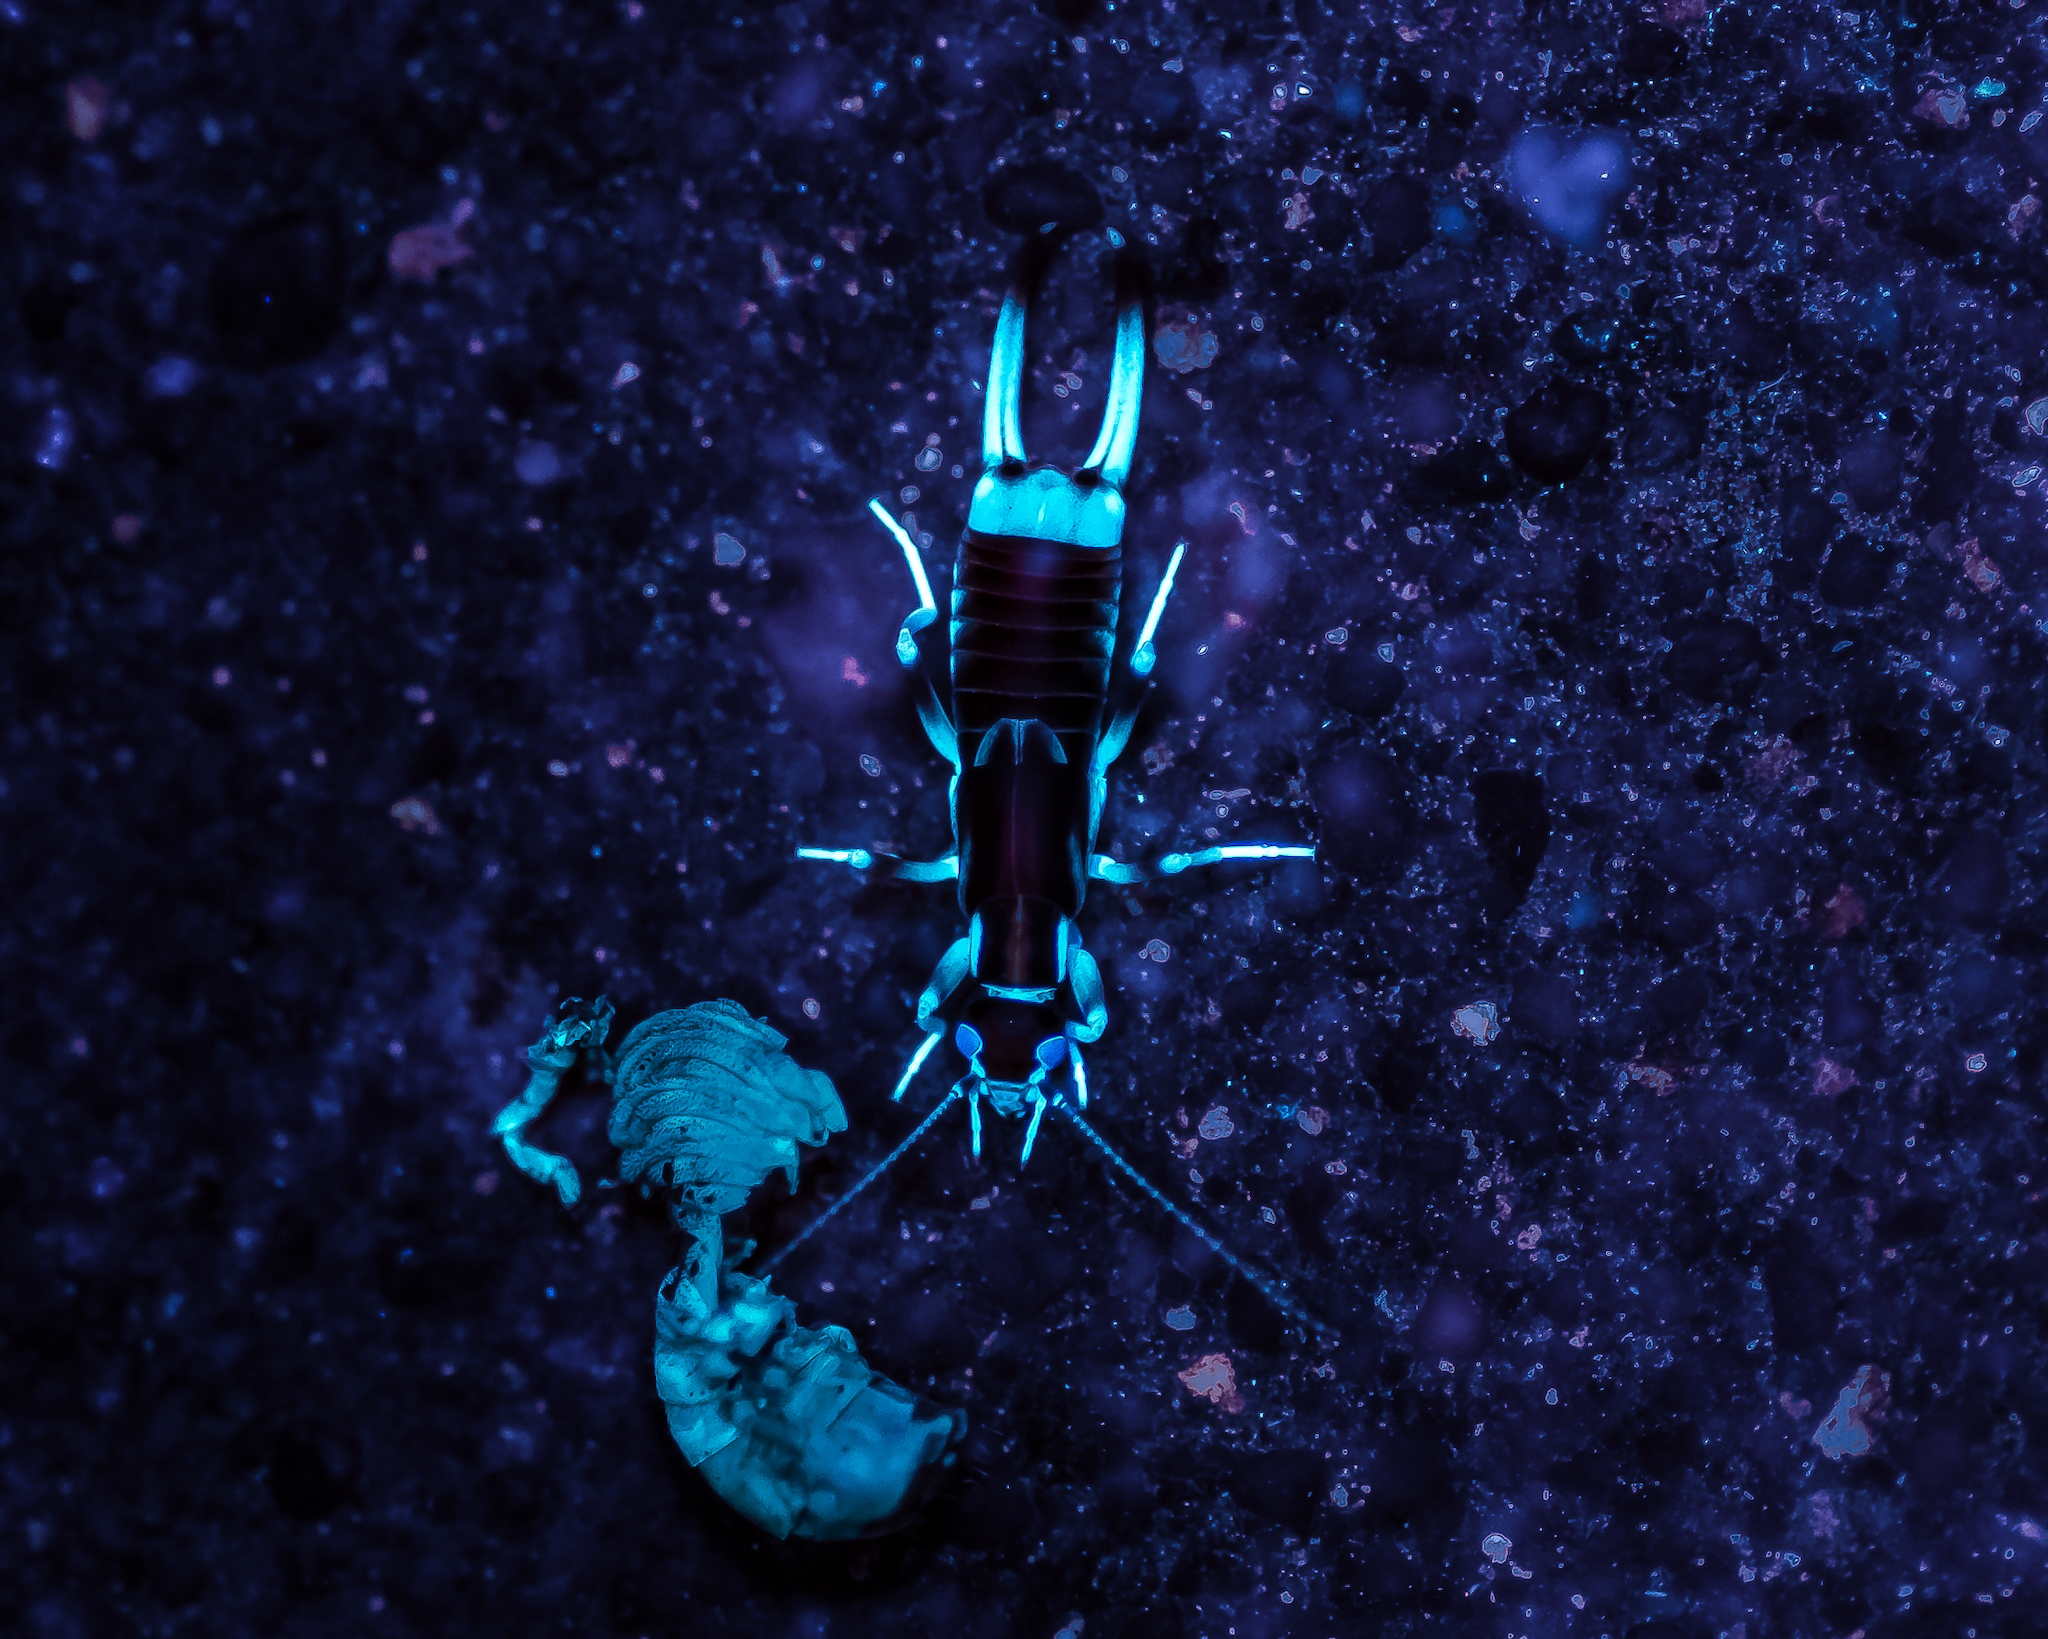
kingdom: Animalia
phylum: Arthropoda
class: Insecta
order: Dermaptera
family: Labiduridae
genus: Labidura
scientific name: Labidura riparia
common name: Striped earwig
